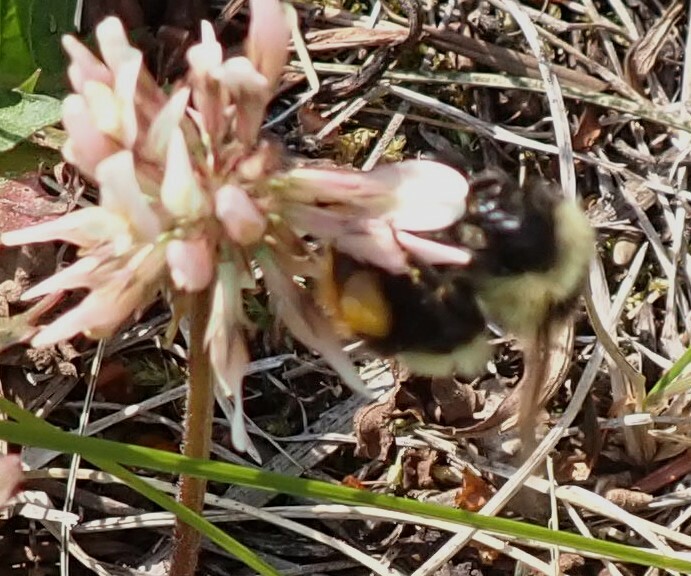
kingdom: Animalia
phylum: Arthropoda
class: Insecta
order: Hymenoptera
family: Apidae
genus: Bombus
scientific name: Bombus rufocinctus
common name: Red-belted bumble bee
